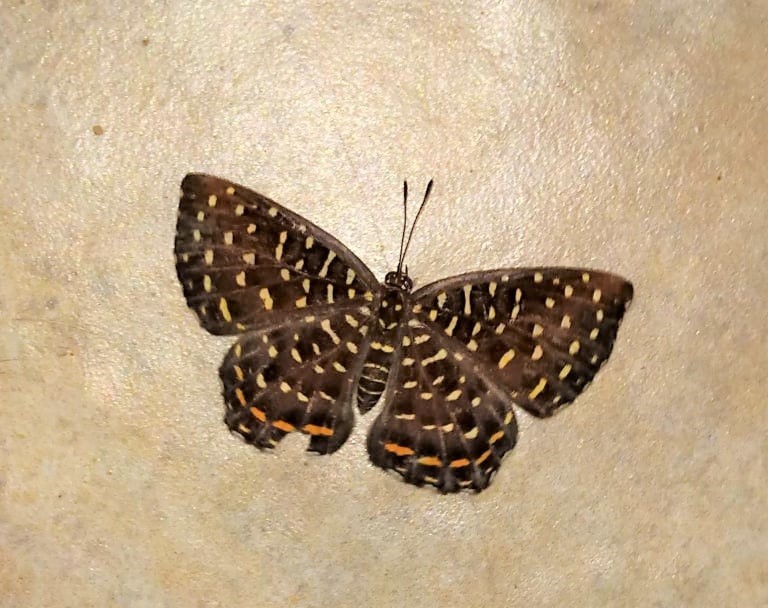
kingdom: Animalia
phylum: Arthropoda
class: Insecta
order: Diptera
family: Ephydridae
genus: Napaea
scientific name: Napaea eucharila
